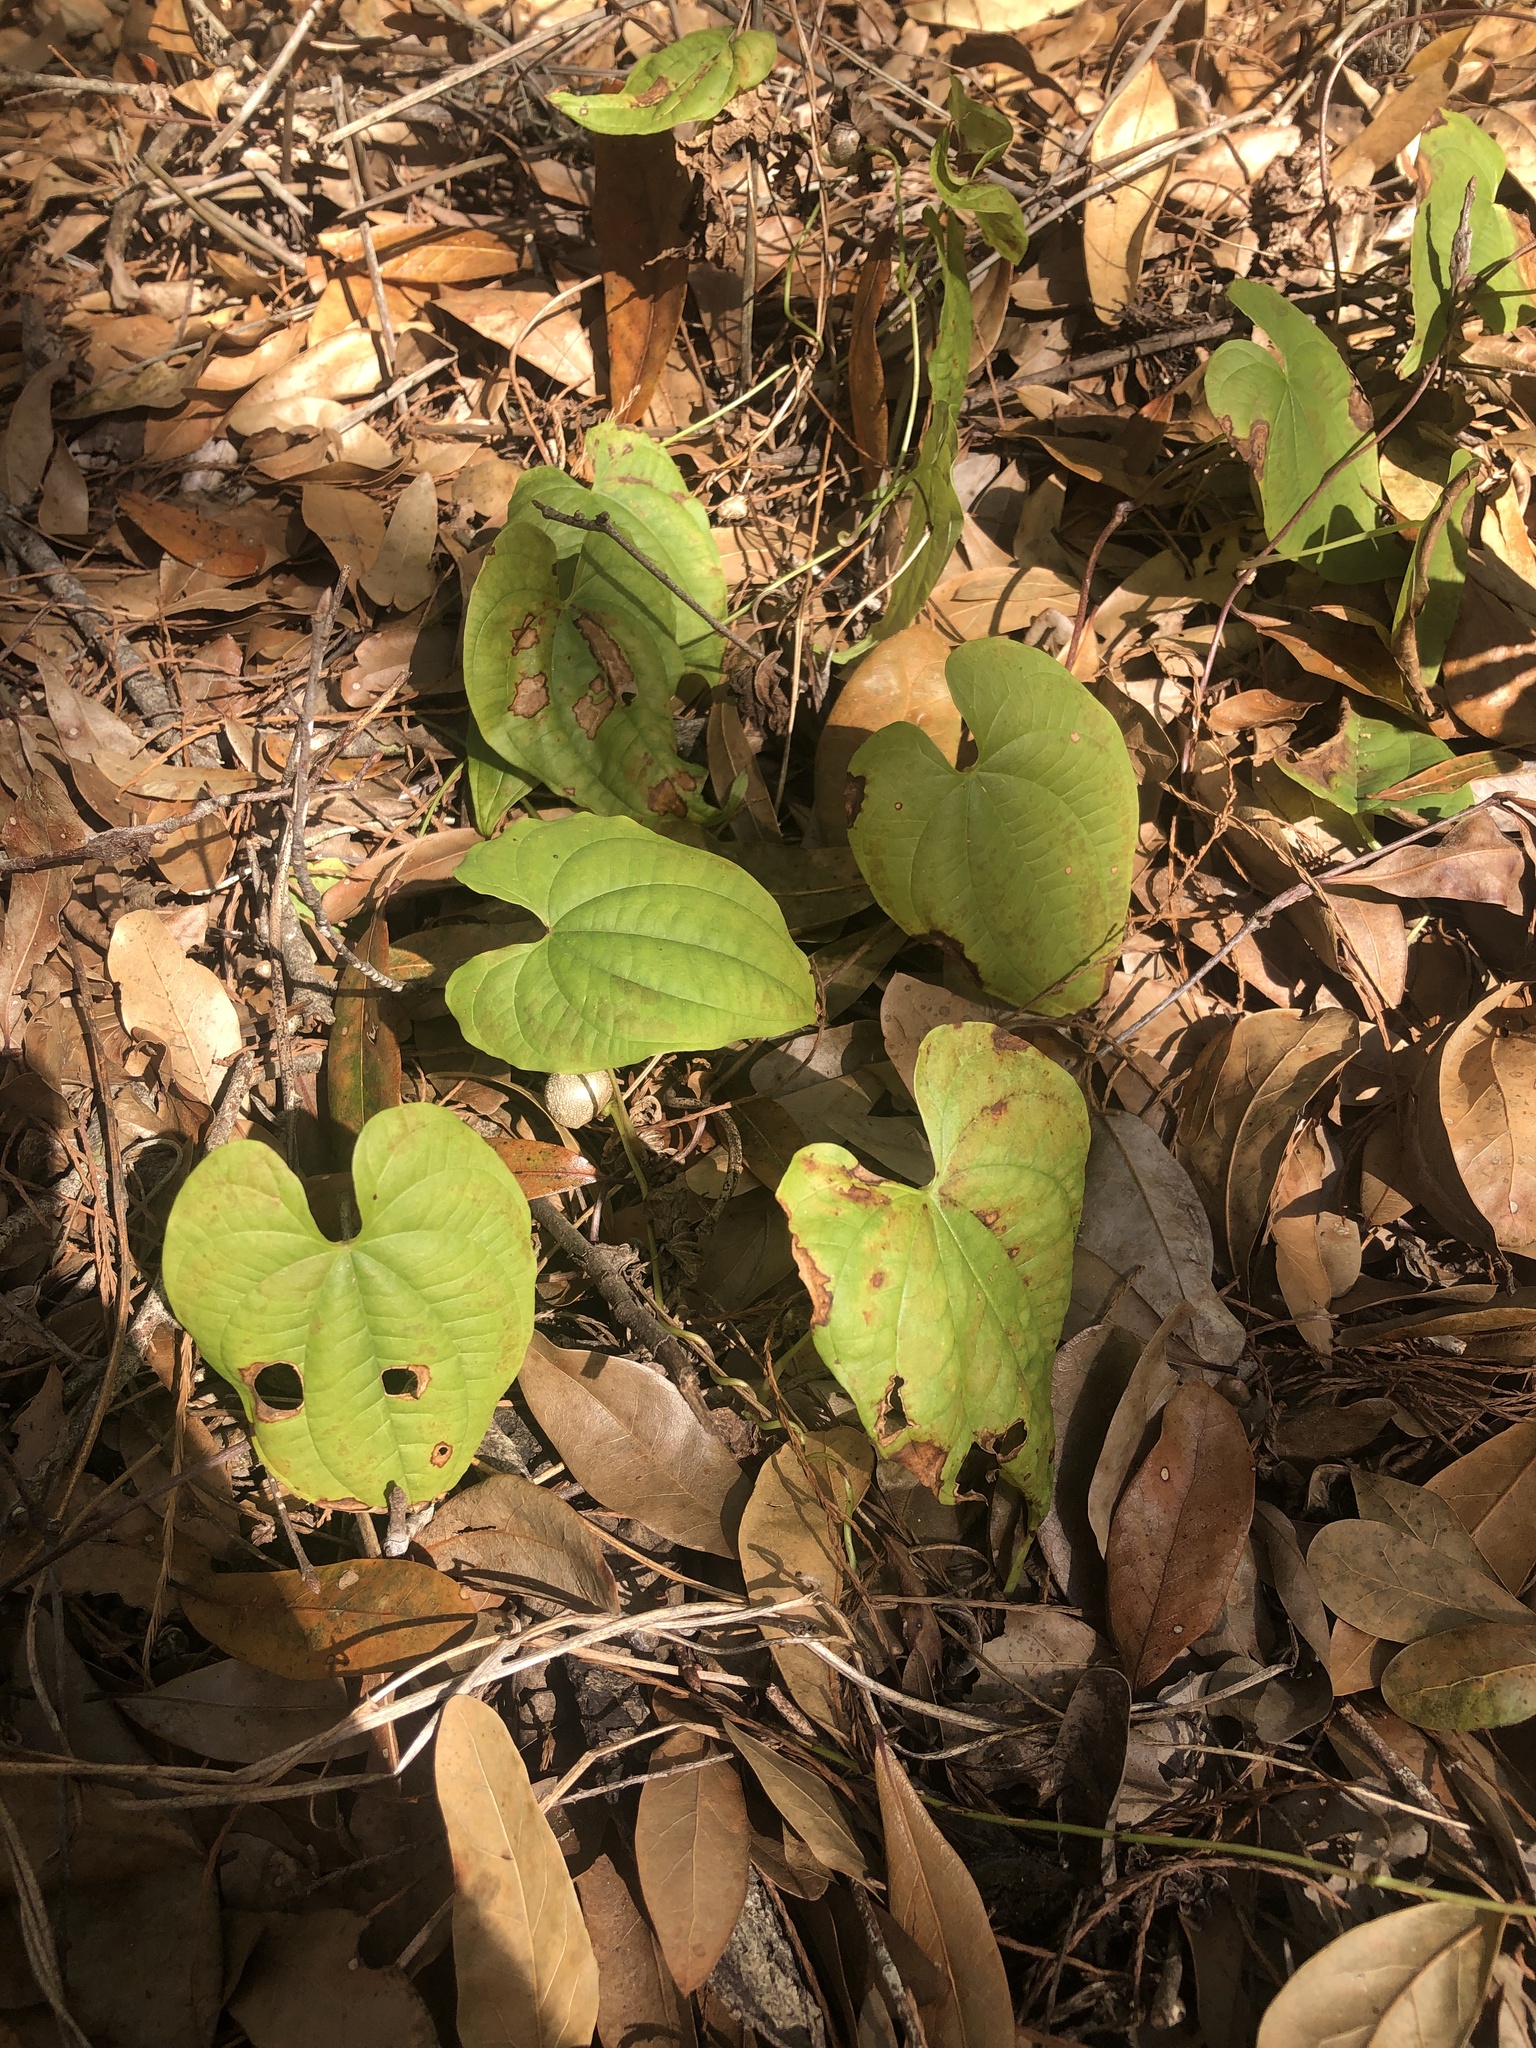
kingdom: Plantae
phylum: Tracheophyta
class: Liliopsida
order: Dioscoreales
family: Dioscoreaceae
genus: Dioscorea
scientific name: Dioscorea bulbifera
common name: Air yam
